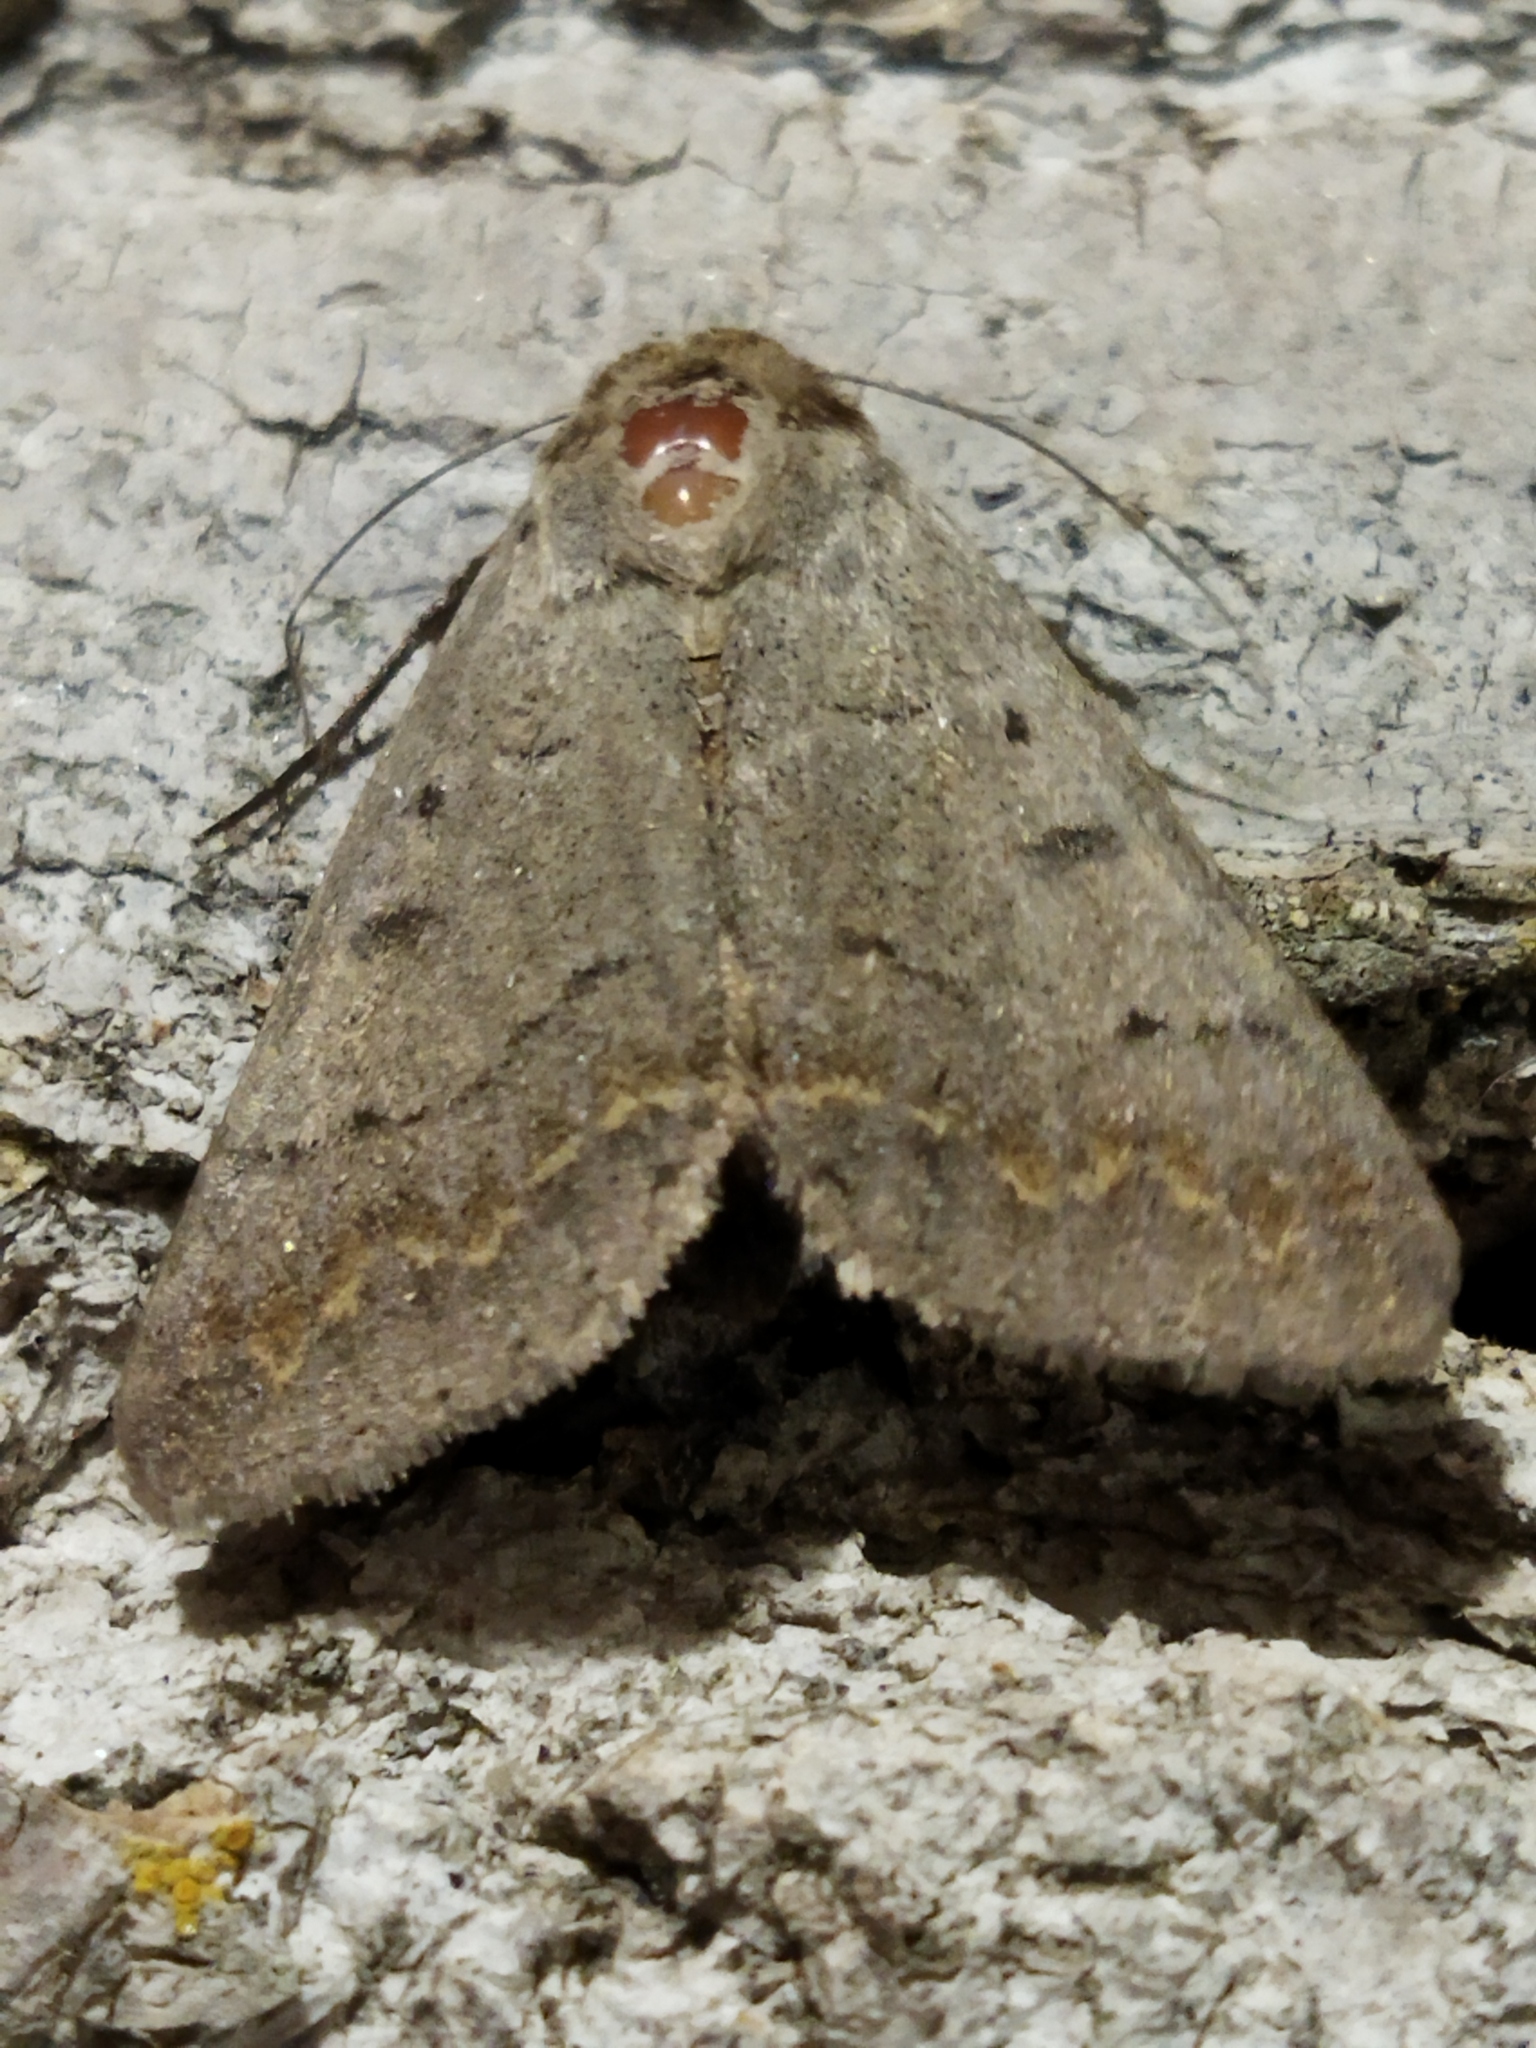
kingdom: Animalia
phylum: Arthropoda
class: Insecta
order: Lepidoptera
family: Erebidae
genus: Clytie
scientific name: Clytie syriaca
